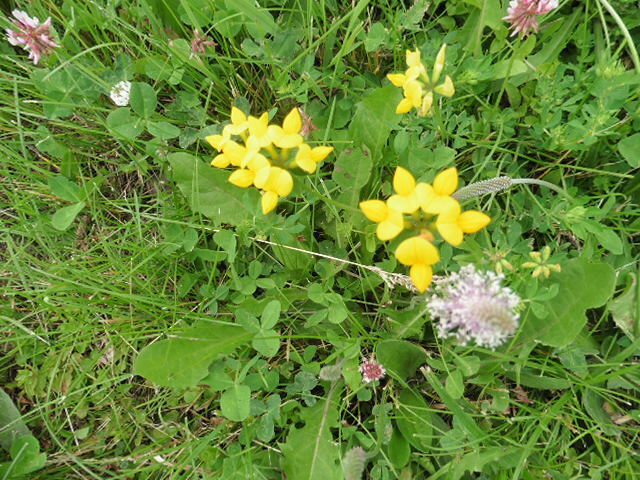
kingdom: Plantae
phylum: Tracheophyta
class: Magnoliopsida
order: Fabales
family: Fabaceae
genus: Lotus
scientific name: Lotus corniculatus
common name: Common bird's-foot-trefoil
